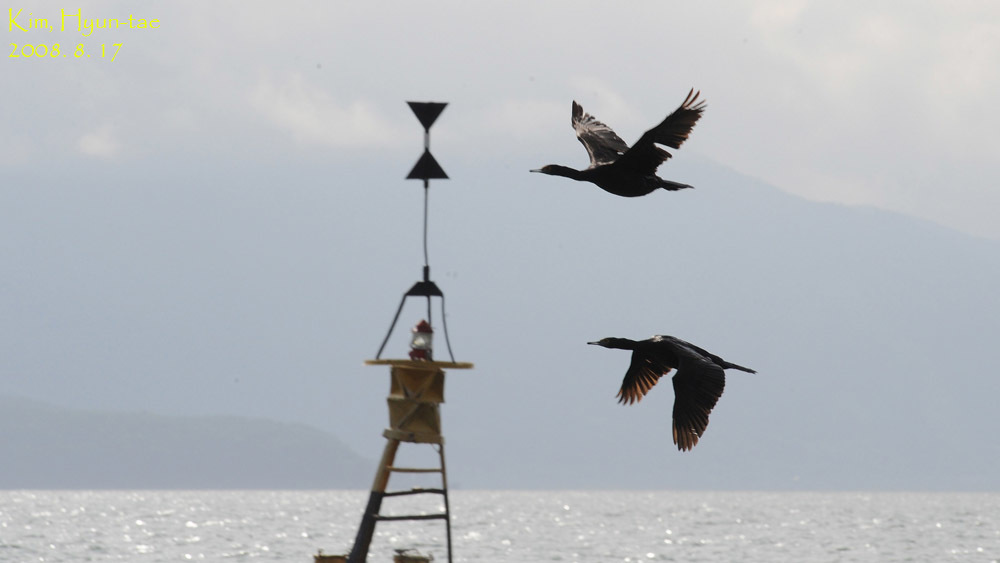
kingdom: Animalia
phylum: Chordata
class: Aves
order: Suliformes
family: Phalacrocoracidae
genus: Phalacrocorax
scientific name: Phalacrocorax pelagicus
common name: Pelagic cormorant
